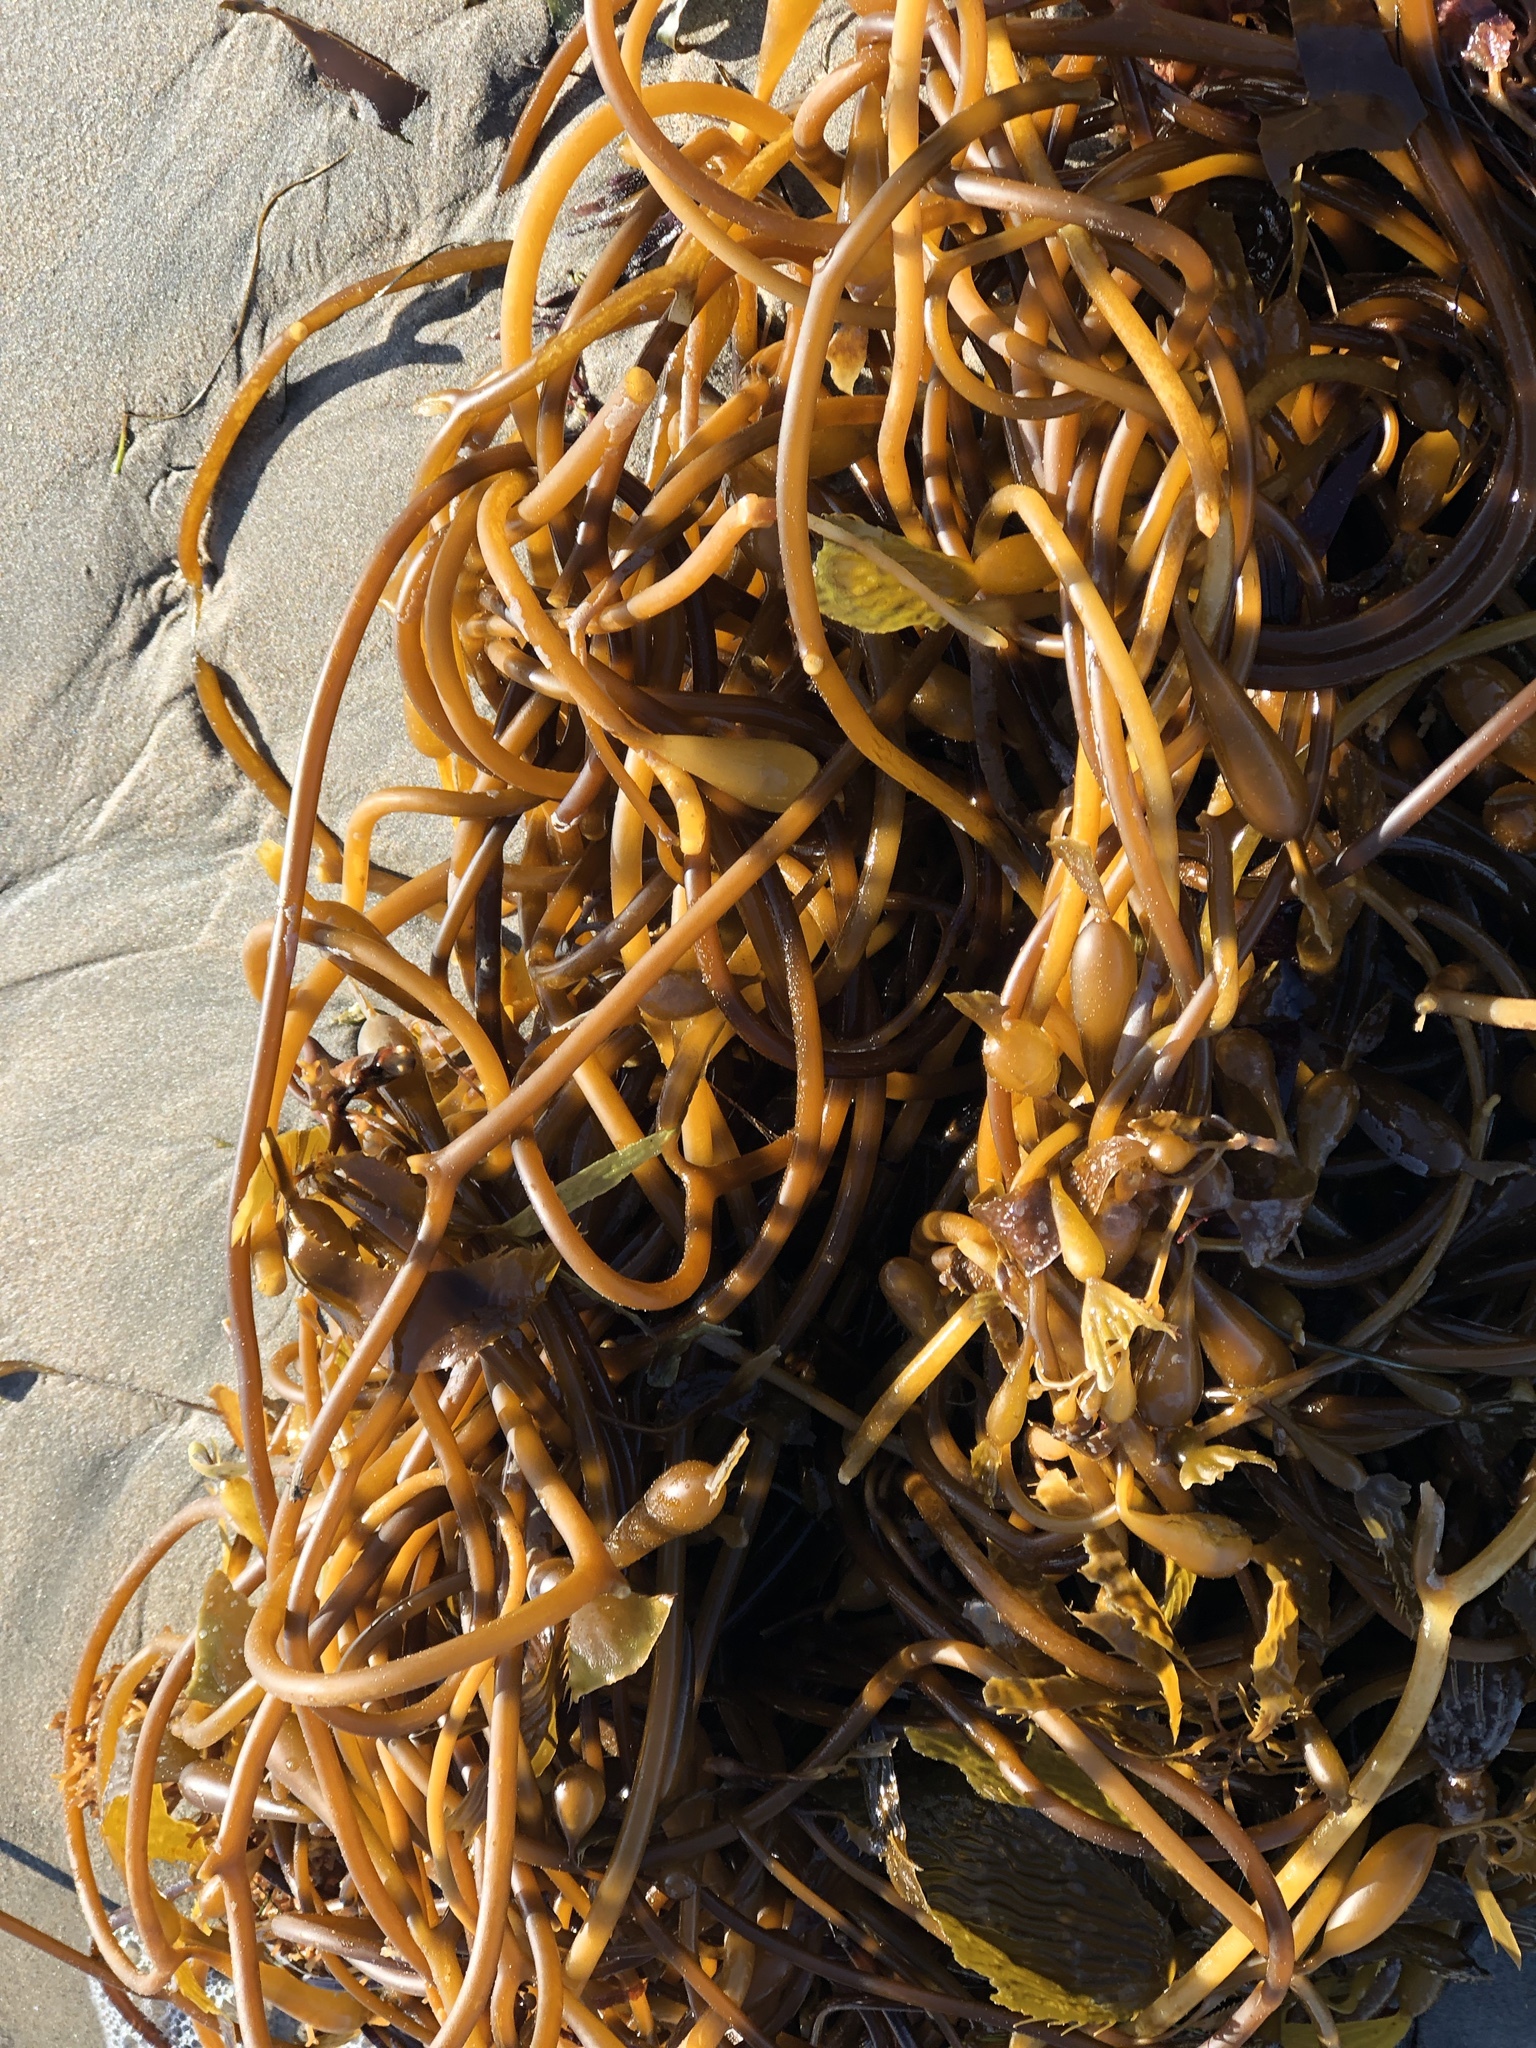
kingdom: Chromista
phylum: Ochrophyta
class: Phaeophyceae
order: Laminariales
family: Laminariaceae
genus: Macrocystis
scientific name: Macrocystis pyrifera
